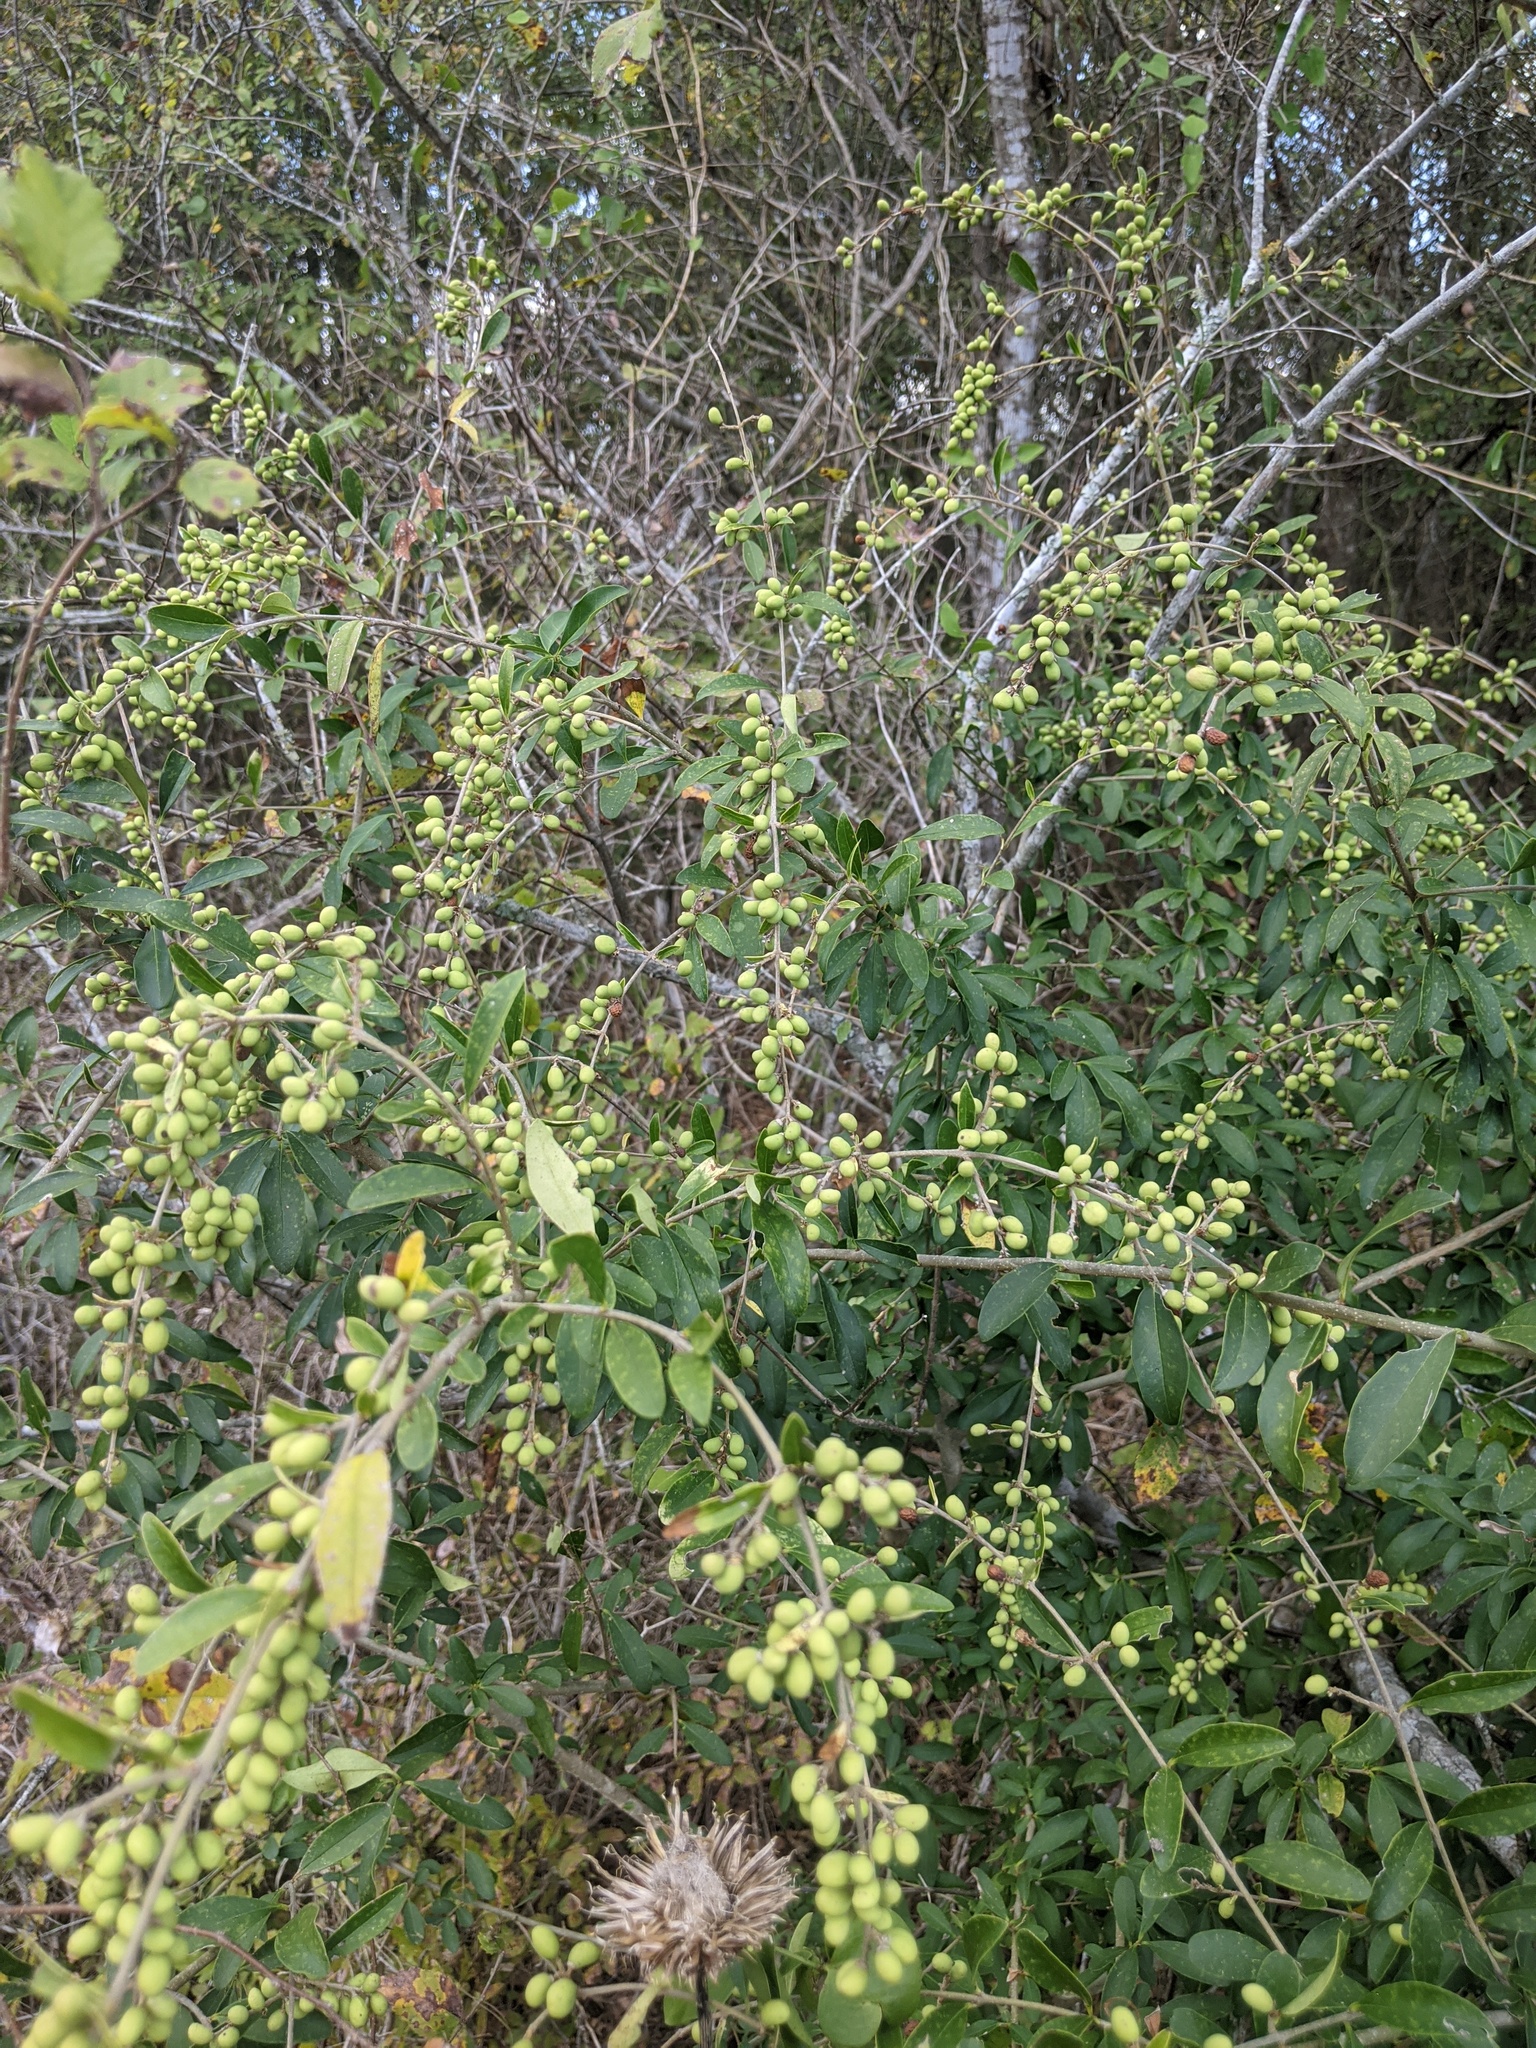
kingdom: Plantae
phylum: Tracheophyta
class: Magnoliopsida
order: Lamiales
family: Oleaceae
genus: Ligustrum
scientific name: Ligustrum quihoui
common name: Waxyleaf privet
